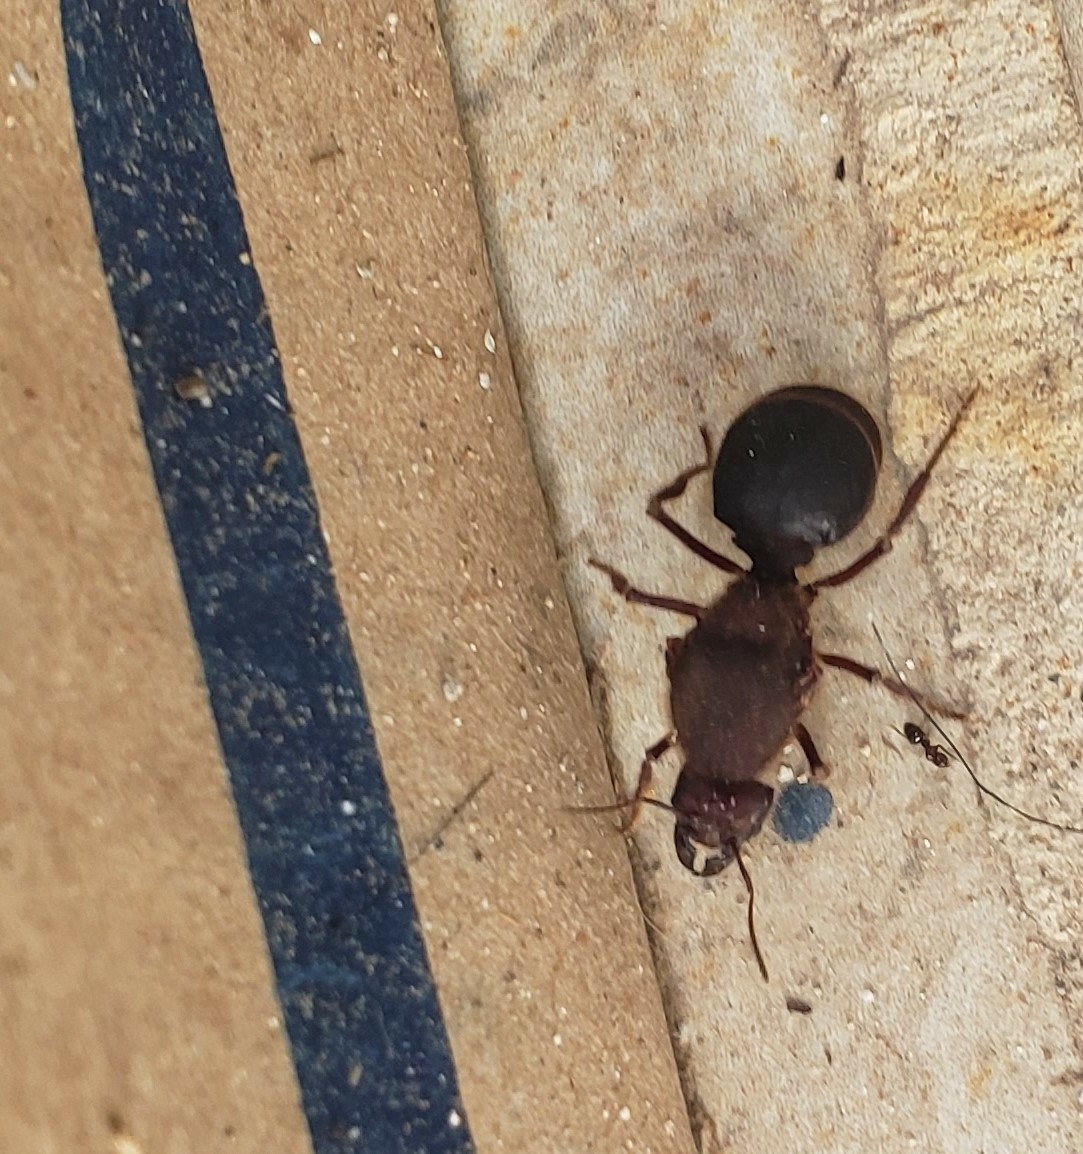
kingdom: Animalia
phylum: Arthropoda
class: Insecta
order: Hymenoptera
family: Formicidae
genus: Atta
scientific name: Atta mexicana
